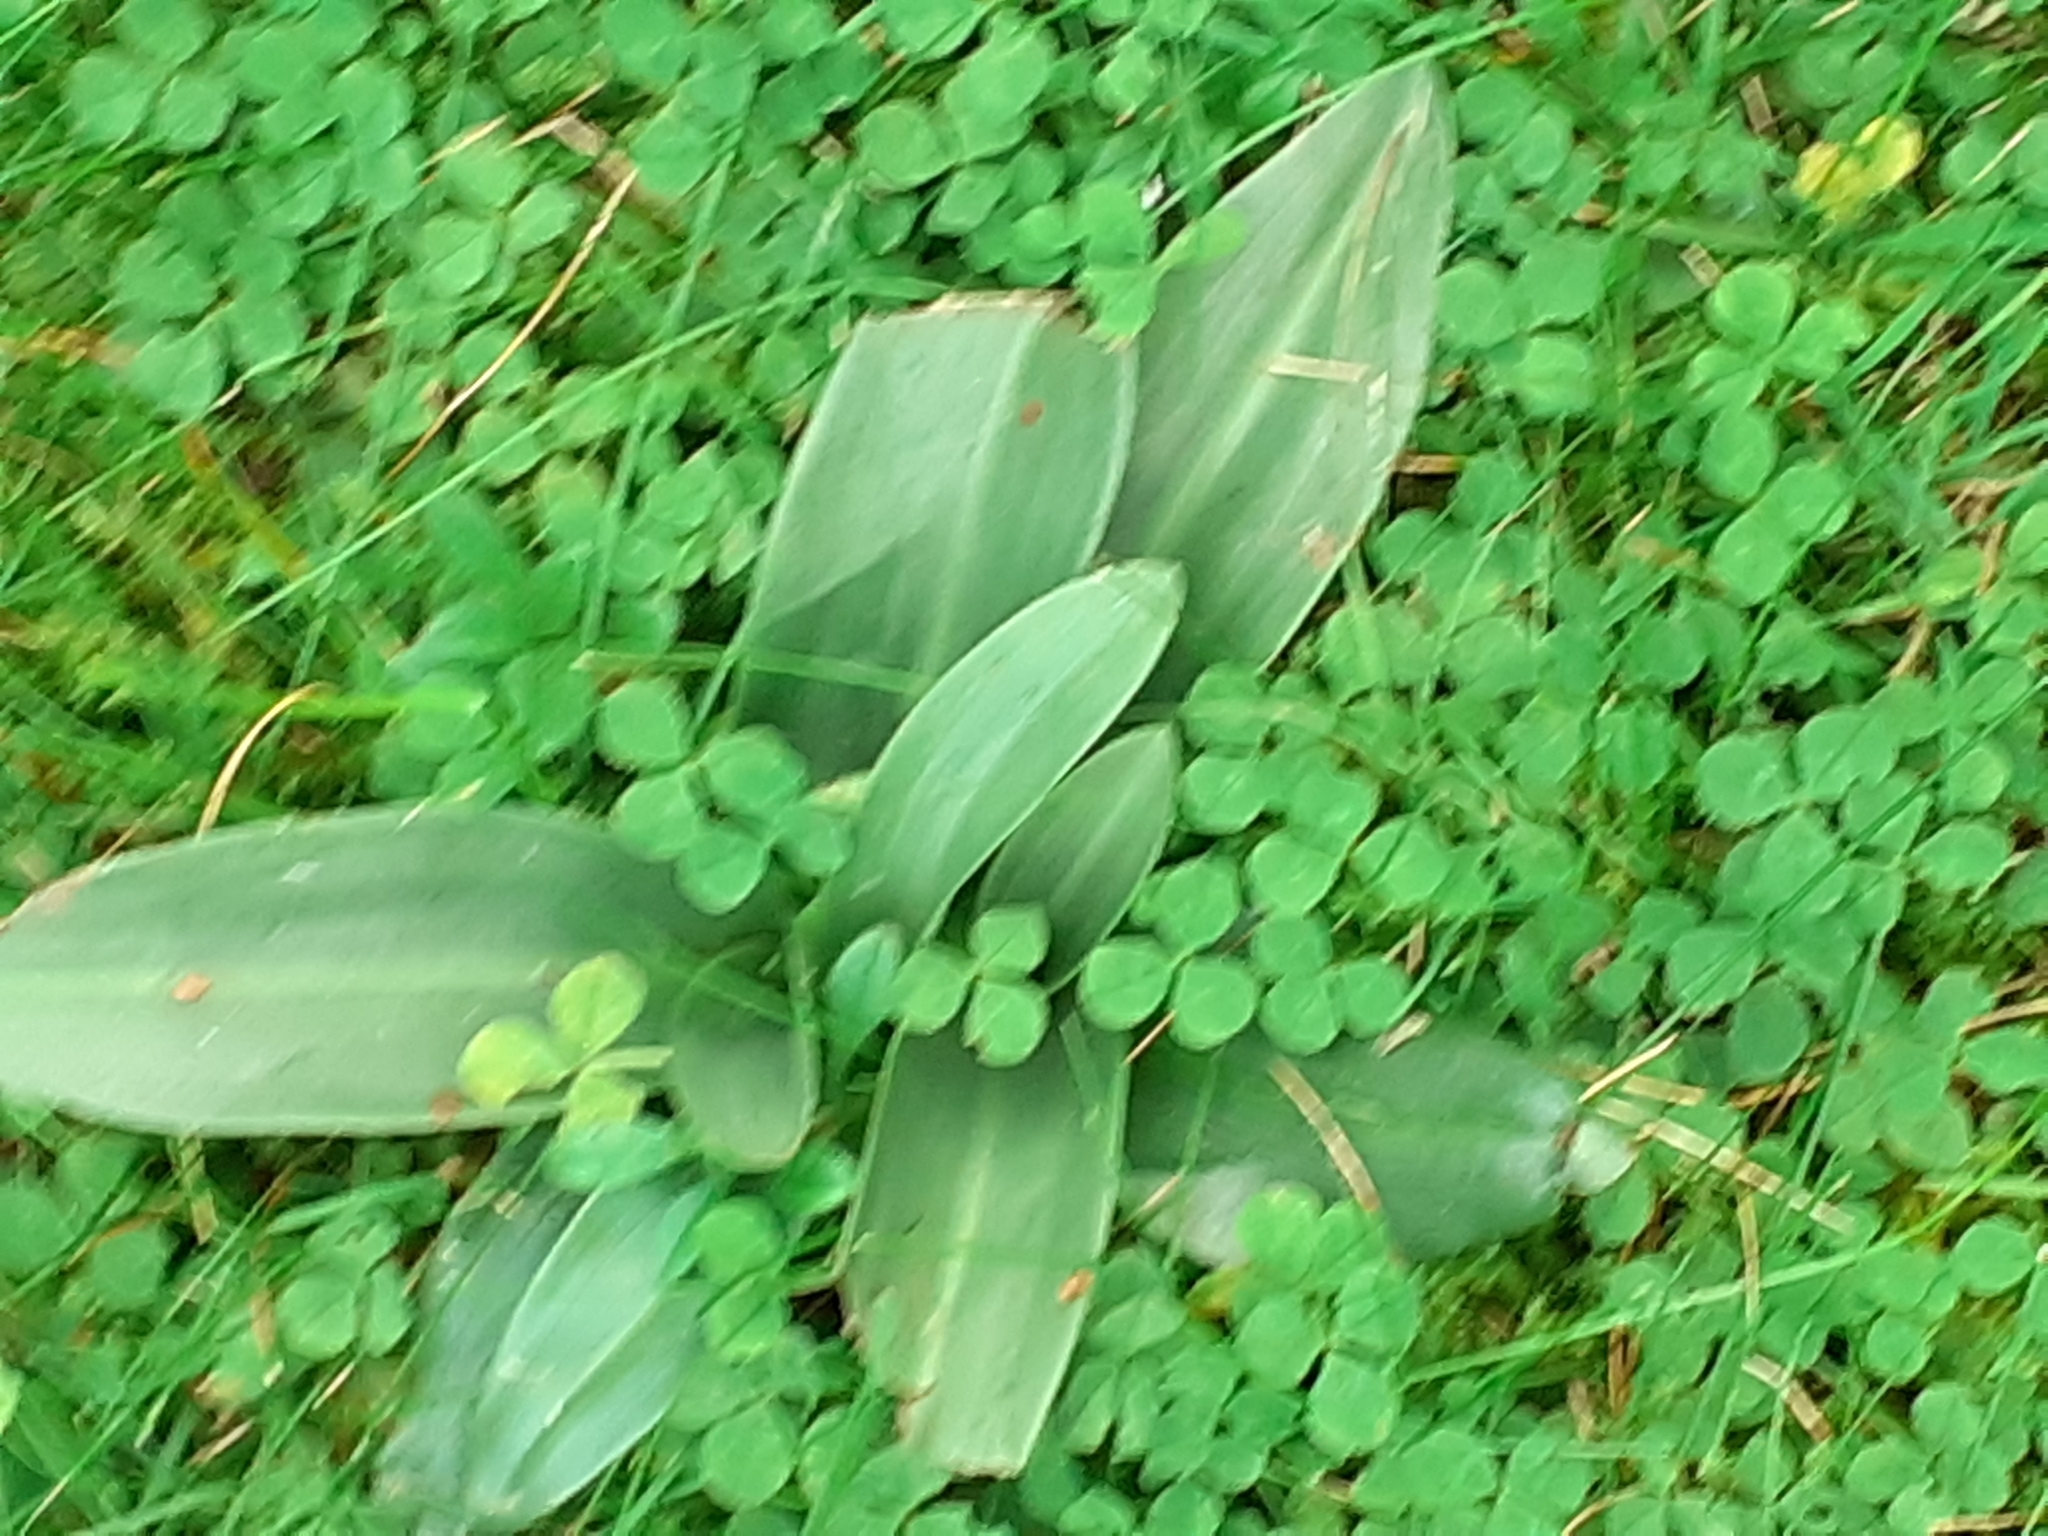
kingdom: Plantae
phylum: Tracheophyta
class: Liliopsida
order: Asparagales
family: Orchidaceae
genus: Ophrys
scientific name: Ophrys apifera
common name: Bee orchid
